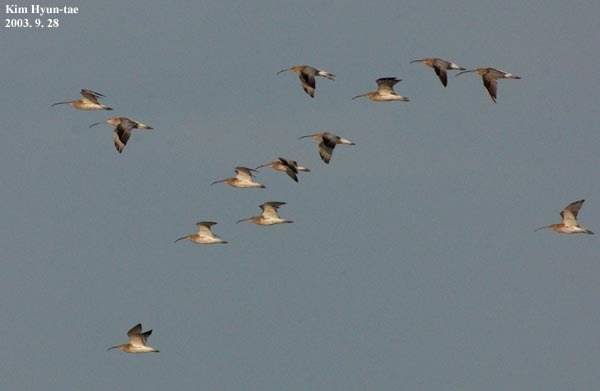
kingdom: Animalia
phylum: Chordata
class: Aves
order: Charadriiformes
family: Scolopacidae
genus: Numenius
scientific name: Numenius arquata
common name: Eurasian curlew
